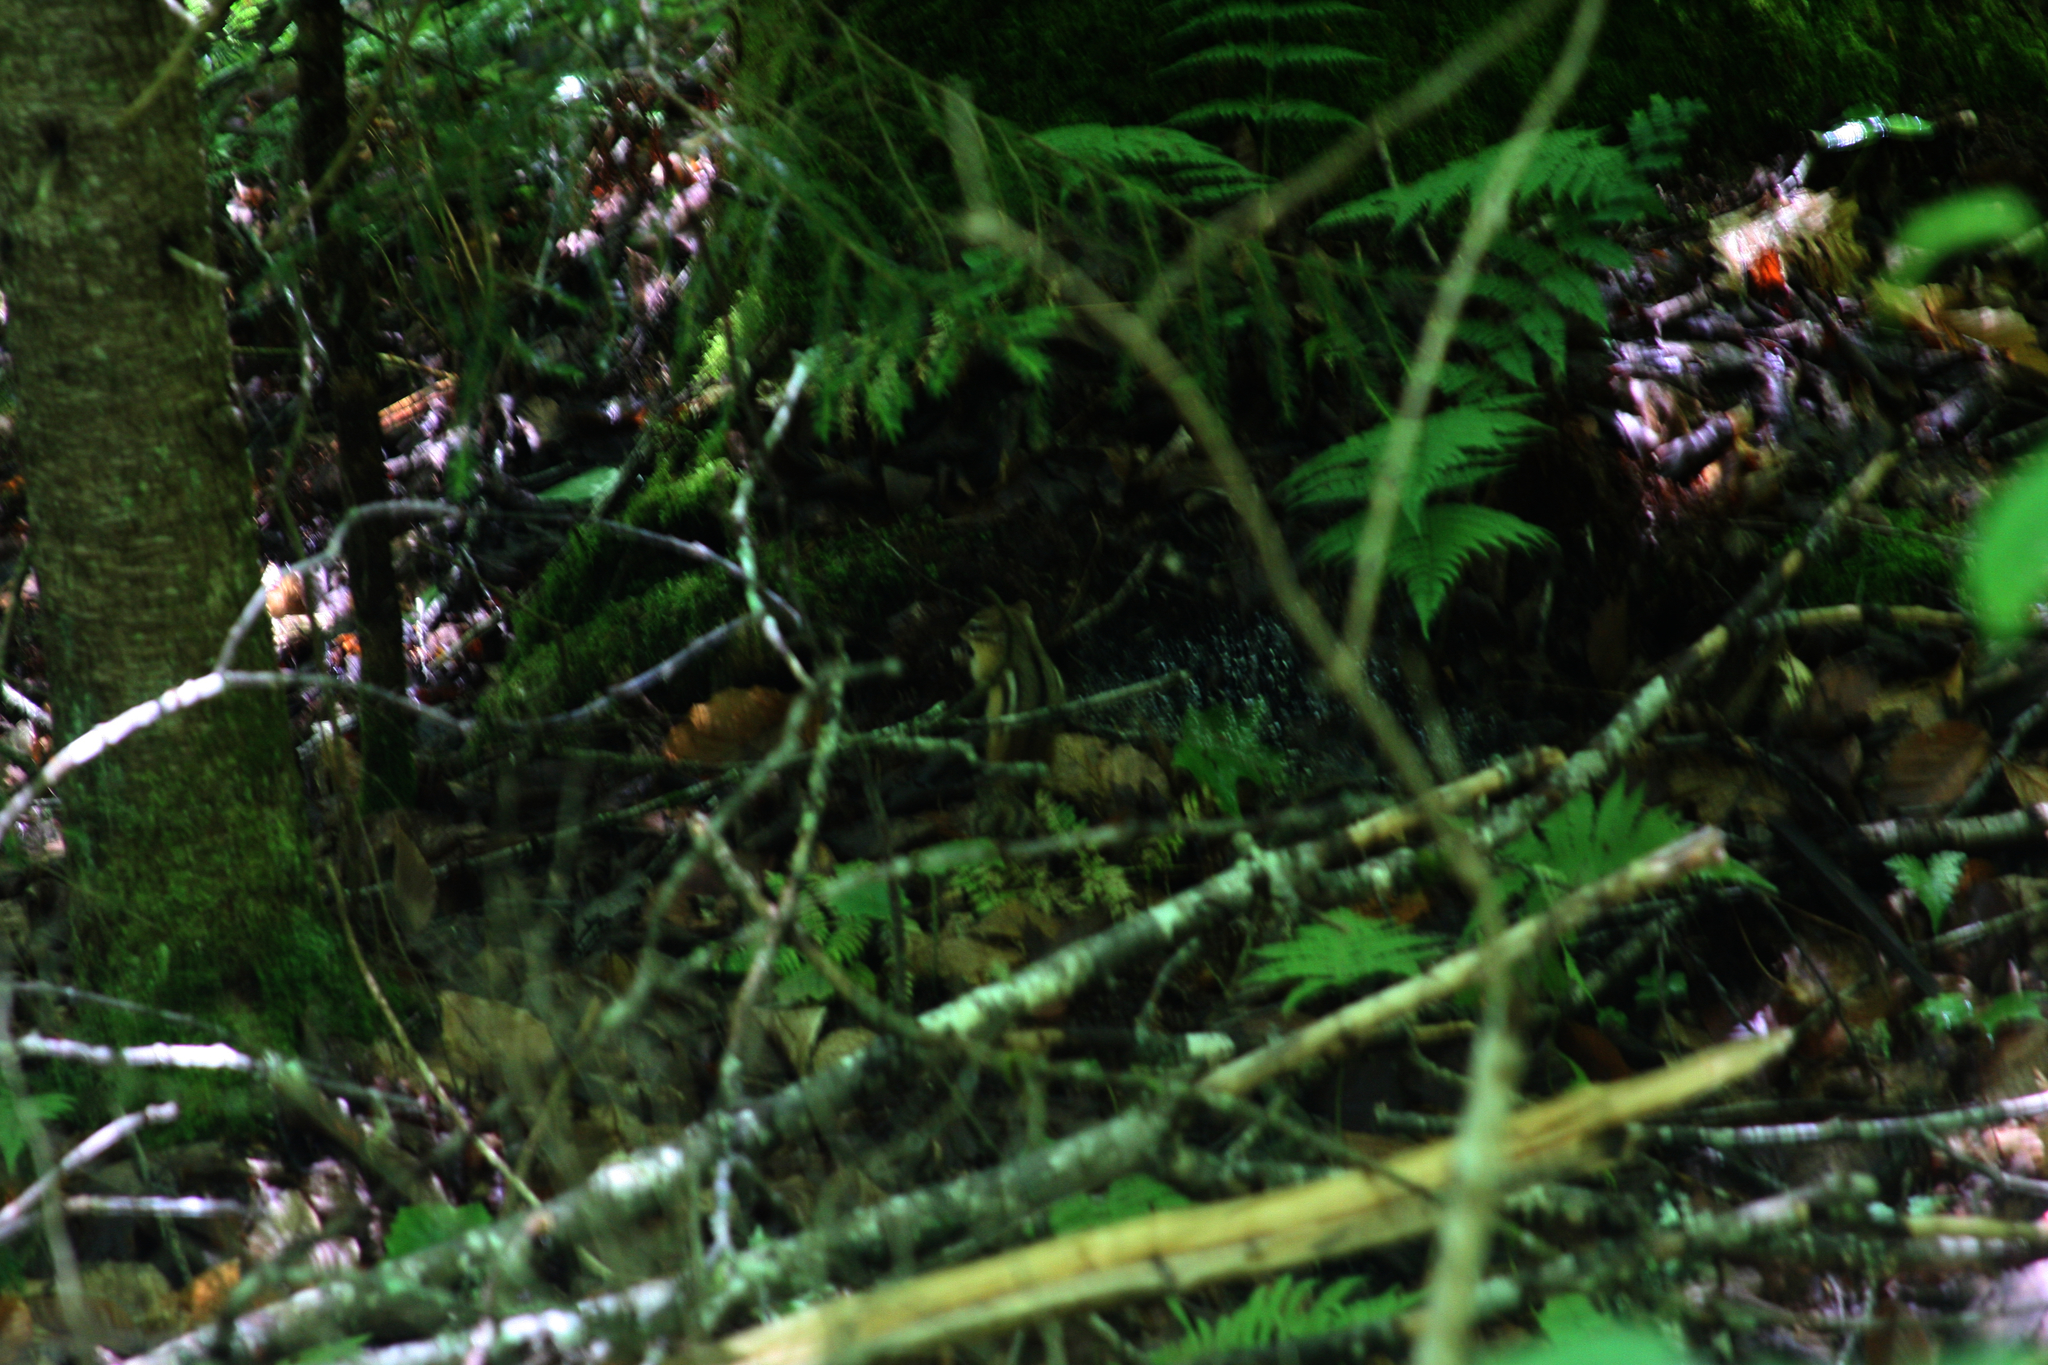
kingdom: Animalia
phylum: Chordata
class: Mammalia
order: Rodentia
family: Sciuridae
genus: Tamias
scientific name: Tamias striatus
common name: Eastern chipmunk
